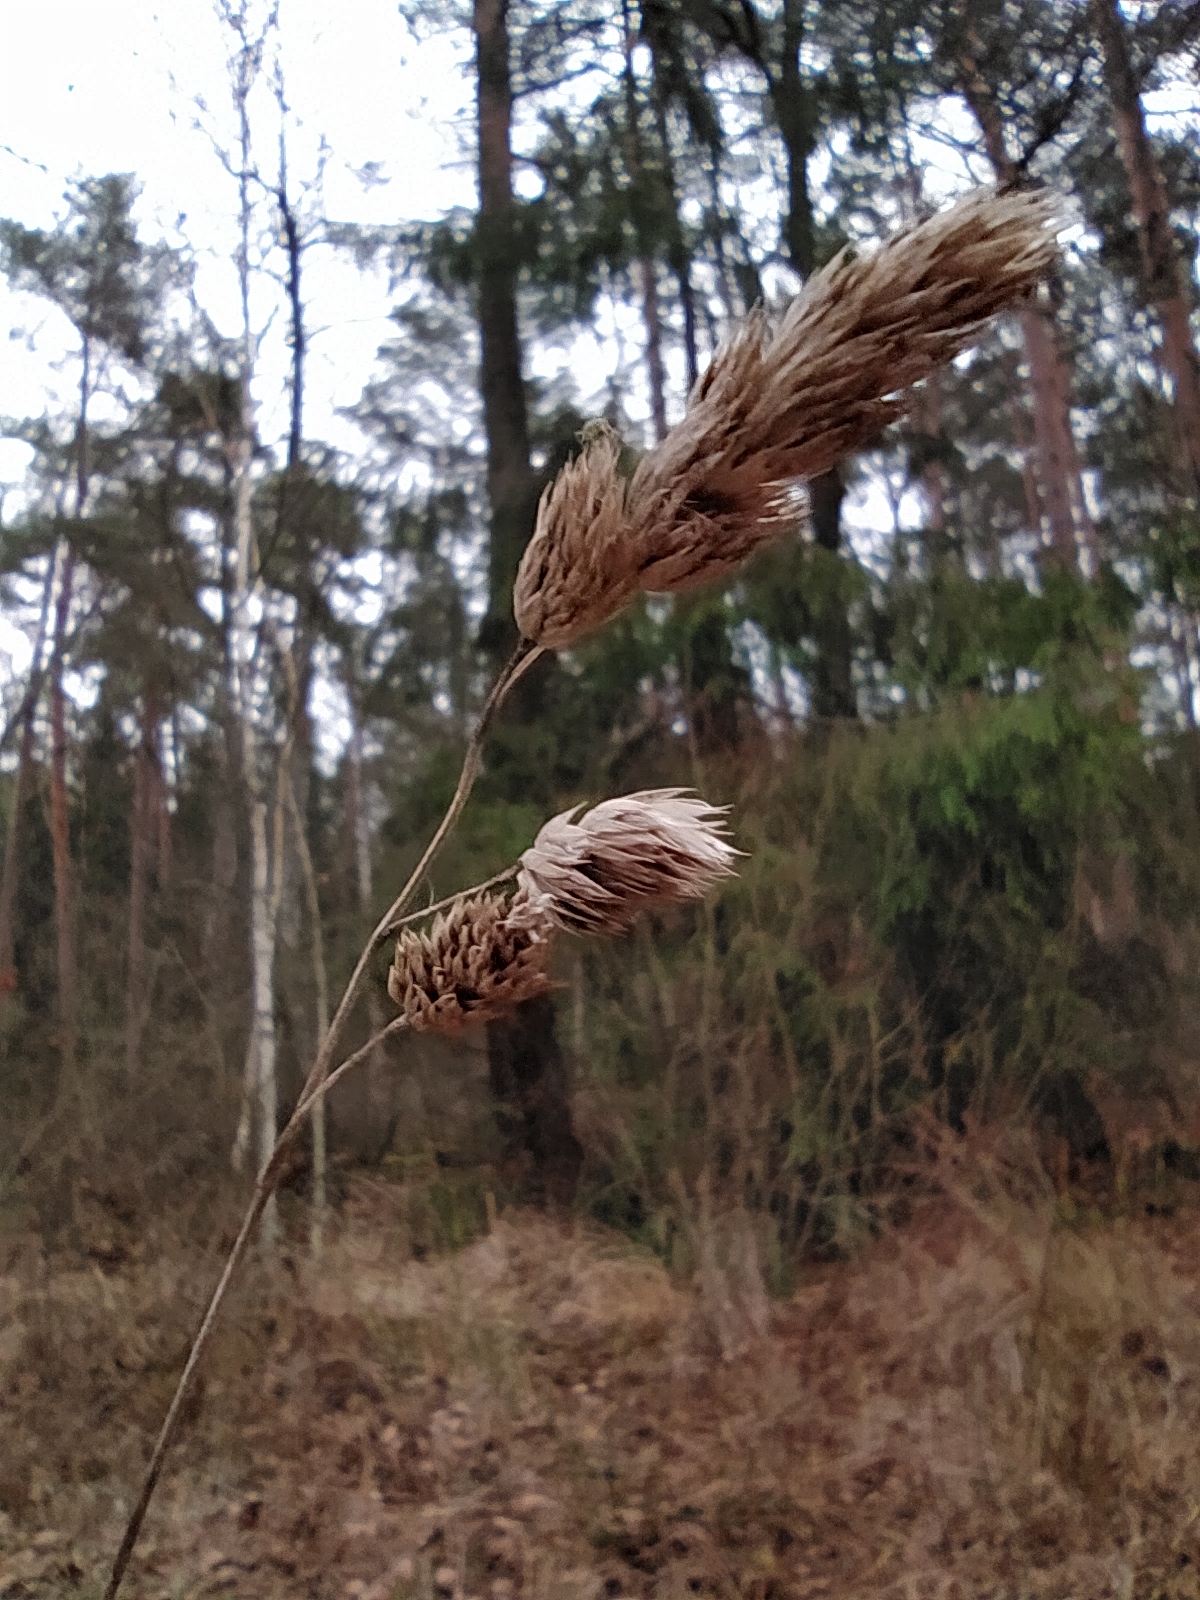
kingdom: Plantae
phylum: Tracheophyta
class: Liliopsida
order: Poales
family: Poaceae
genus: Dactylis
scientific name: Dactylis glomerata
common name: Orchardgrass
